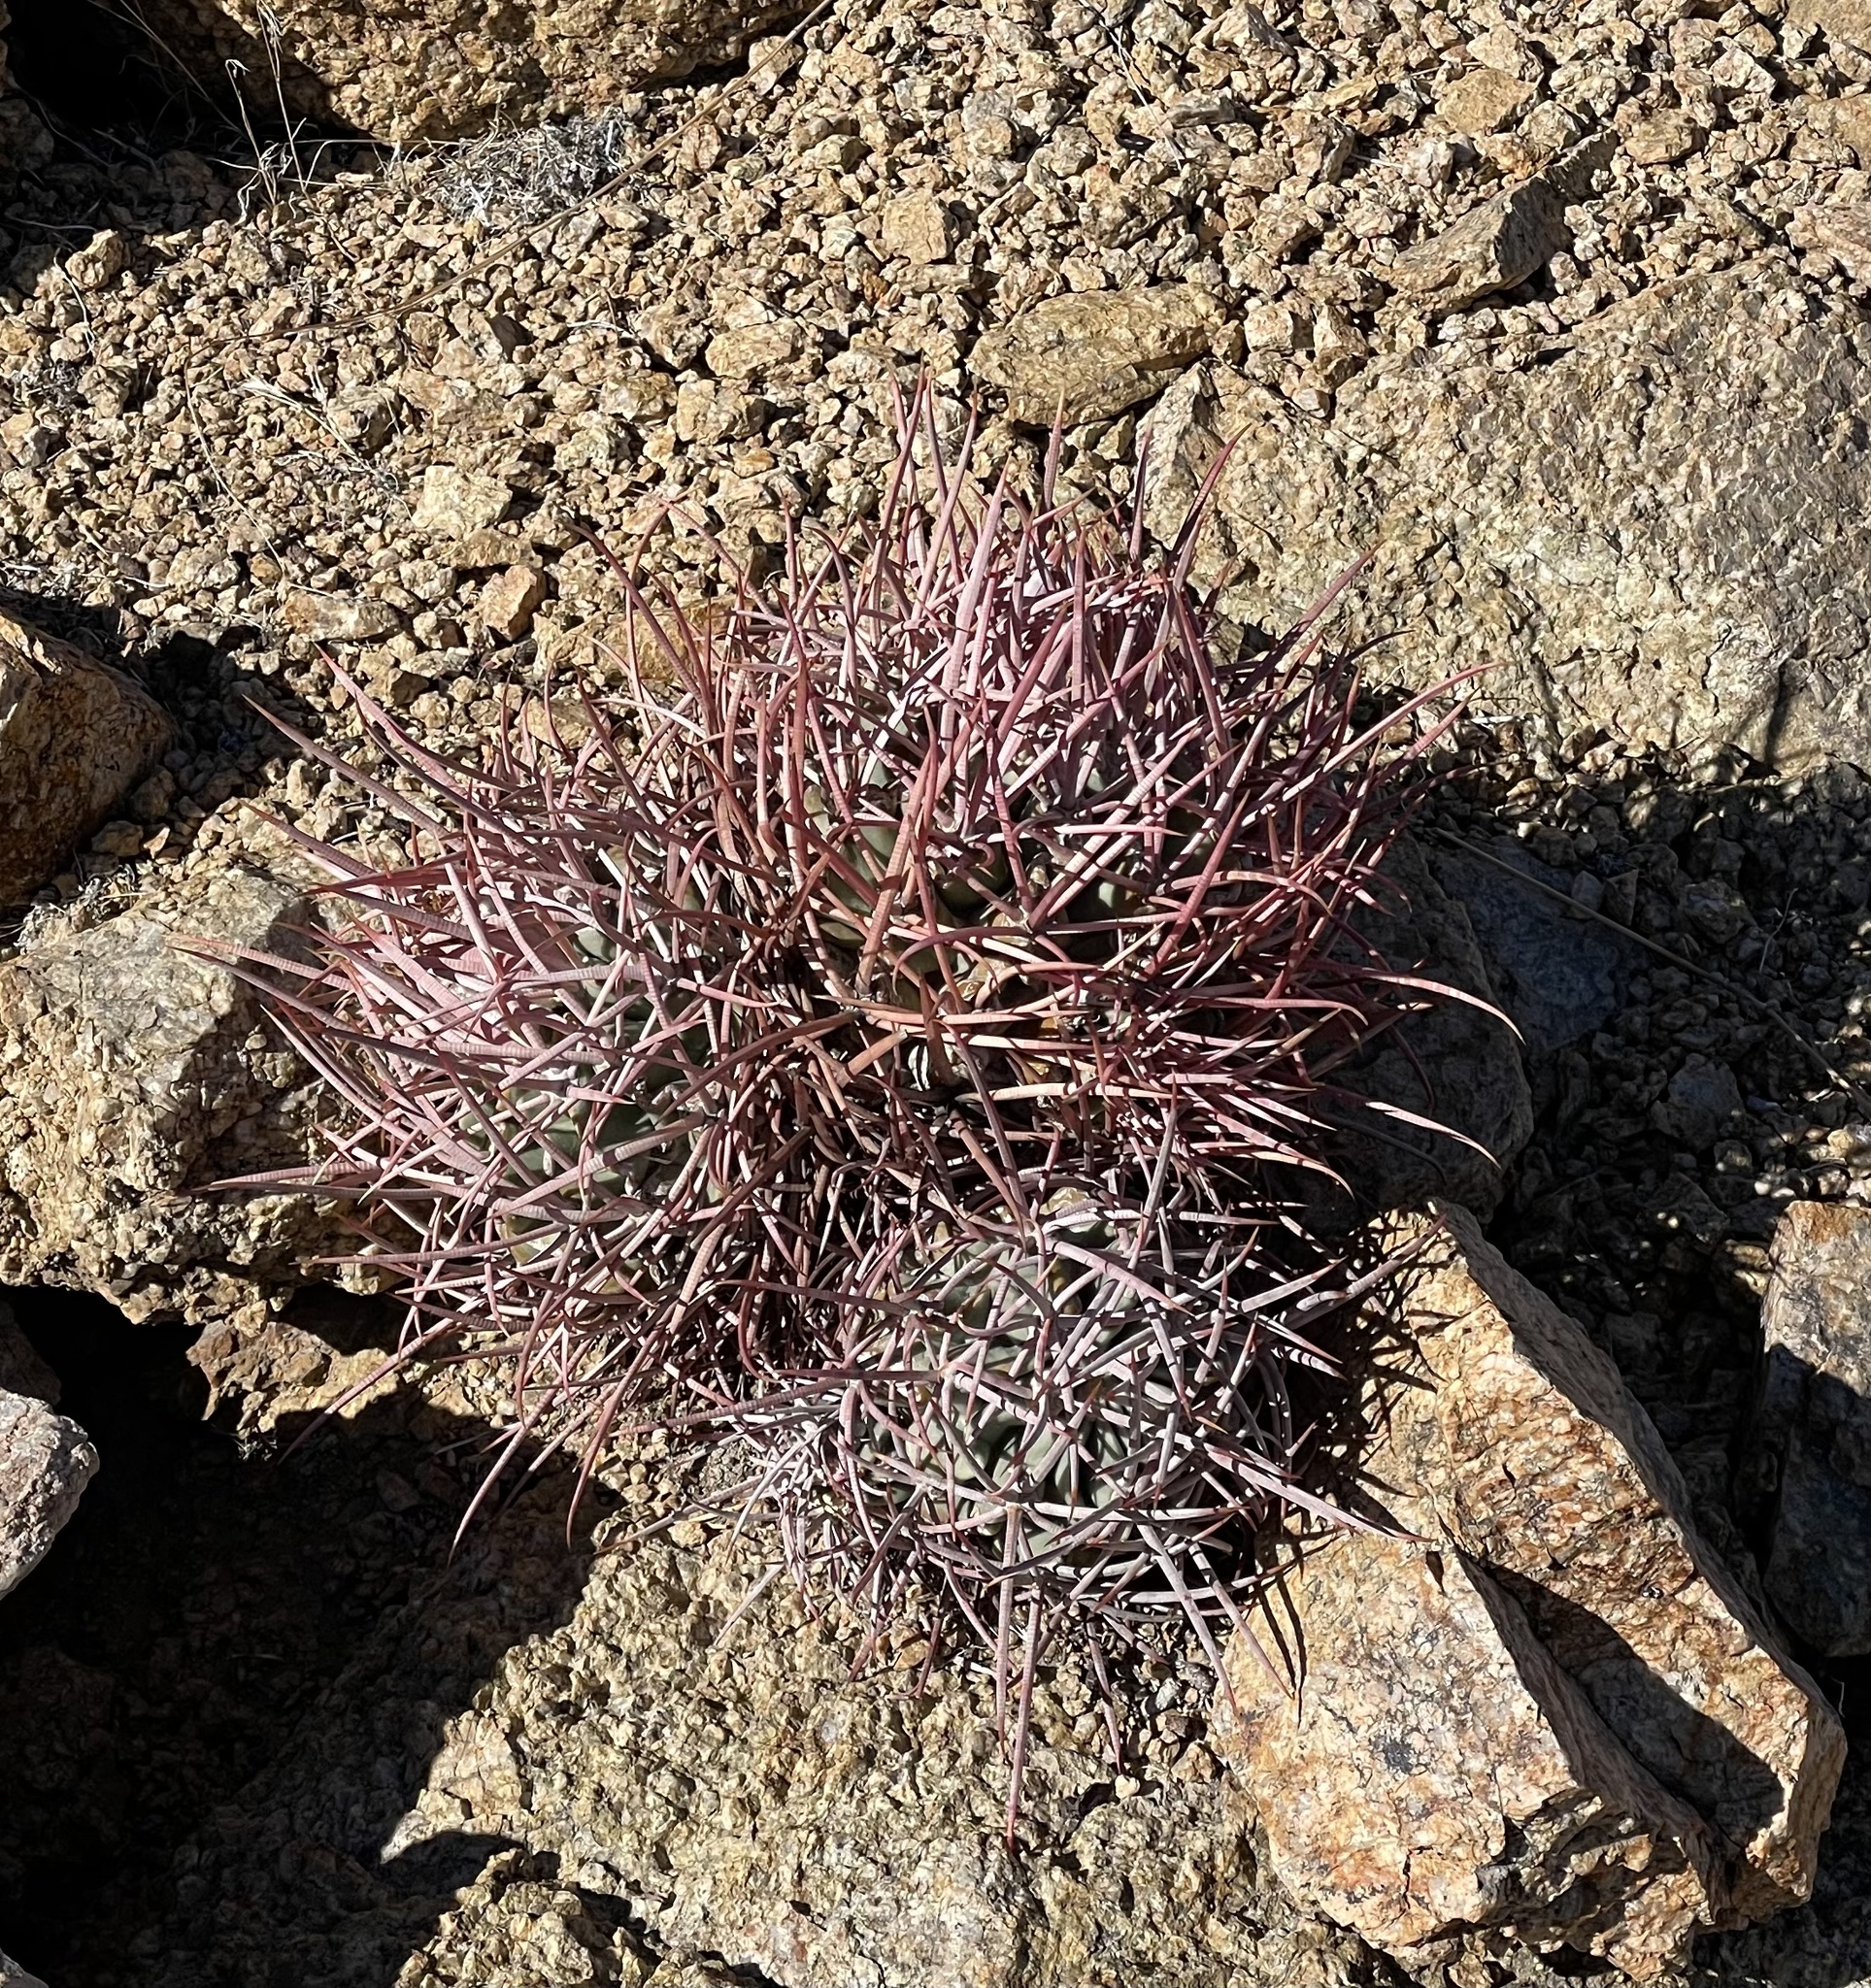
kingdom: Plantae
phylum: Tracheophyta
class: Magnoliopsida
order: Caryophyllales
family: Cactaceae
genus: Echinocactus
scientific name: Echinocactus polycephalus
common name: Cottontop cactus
